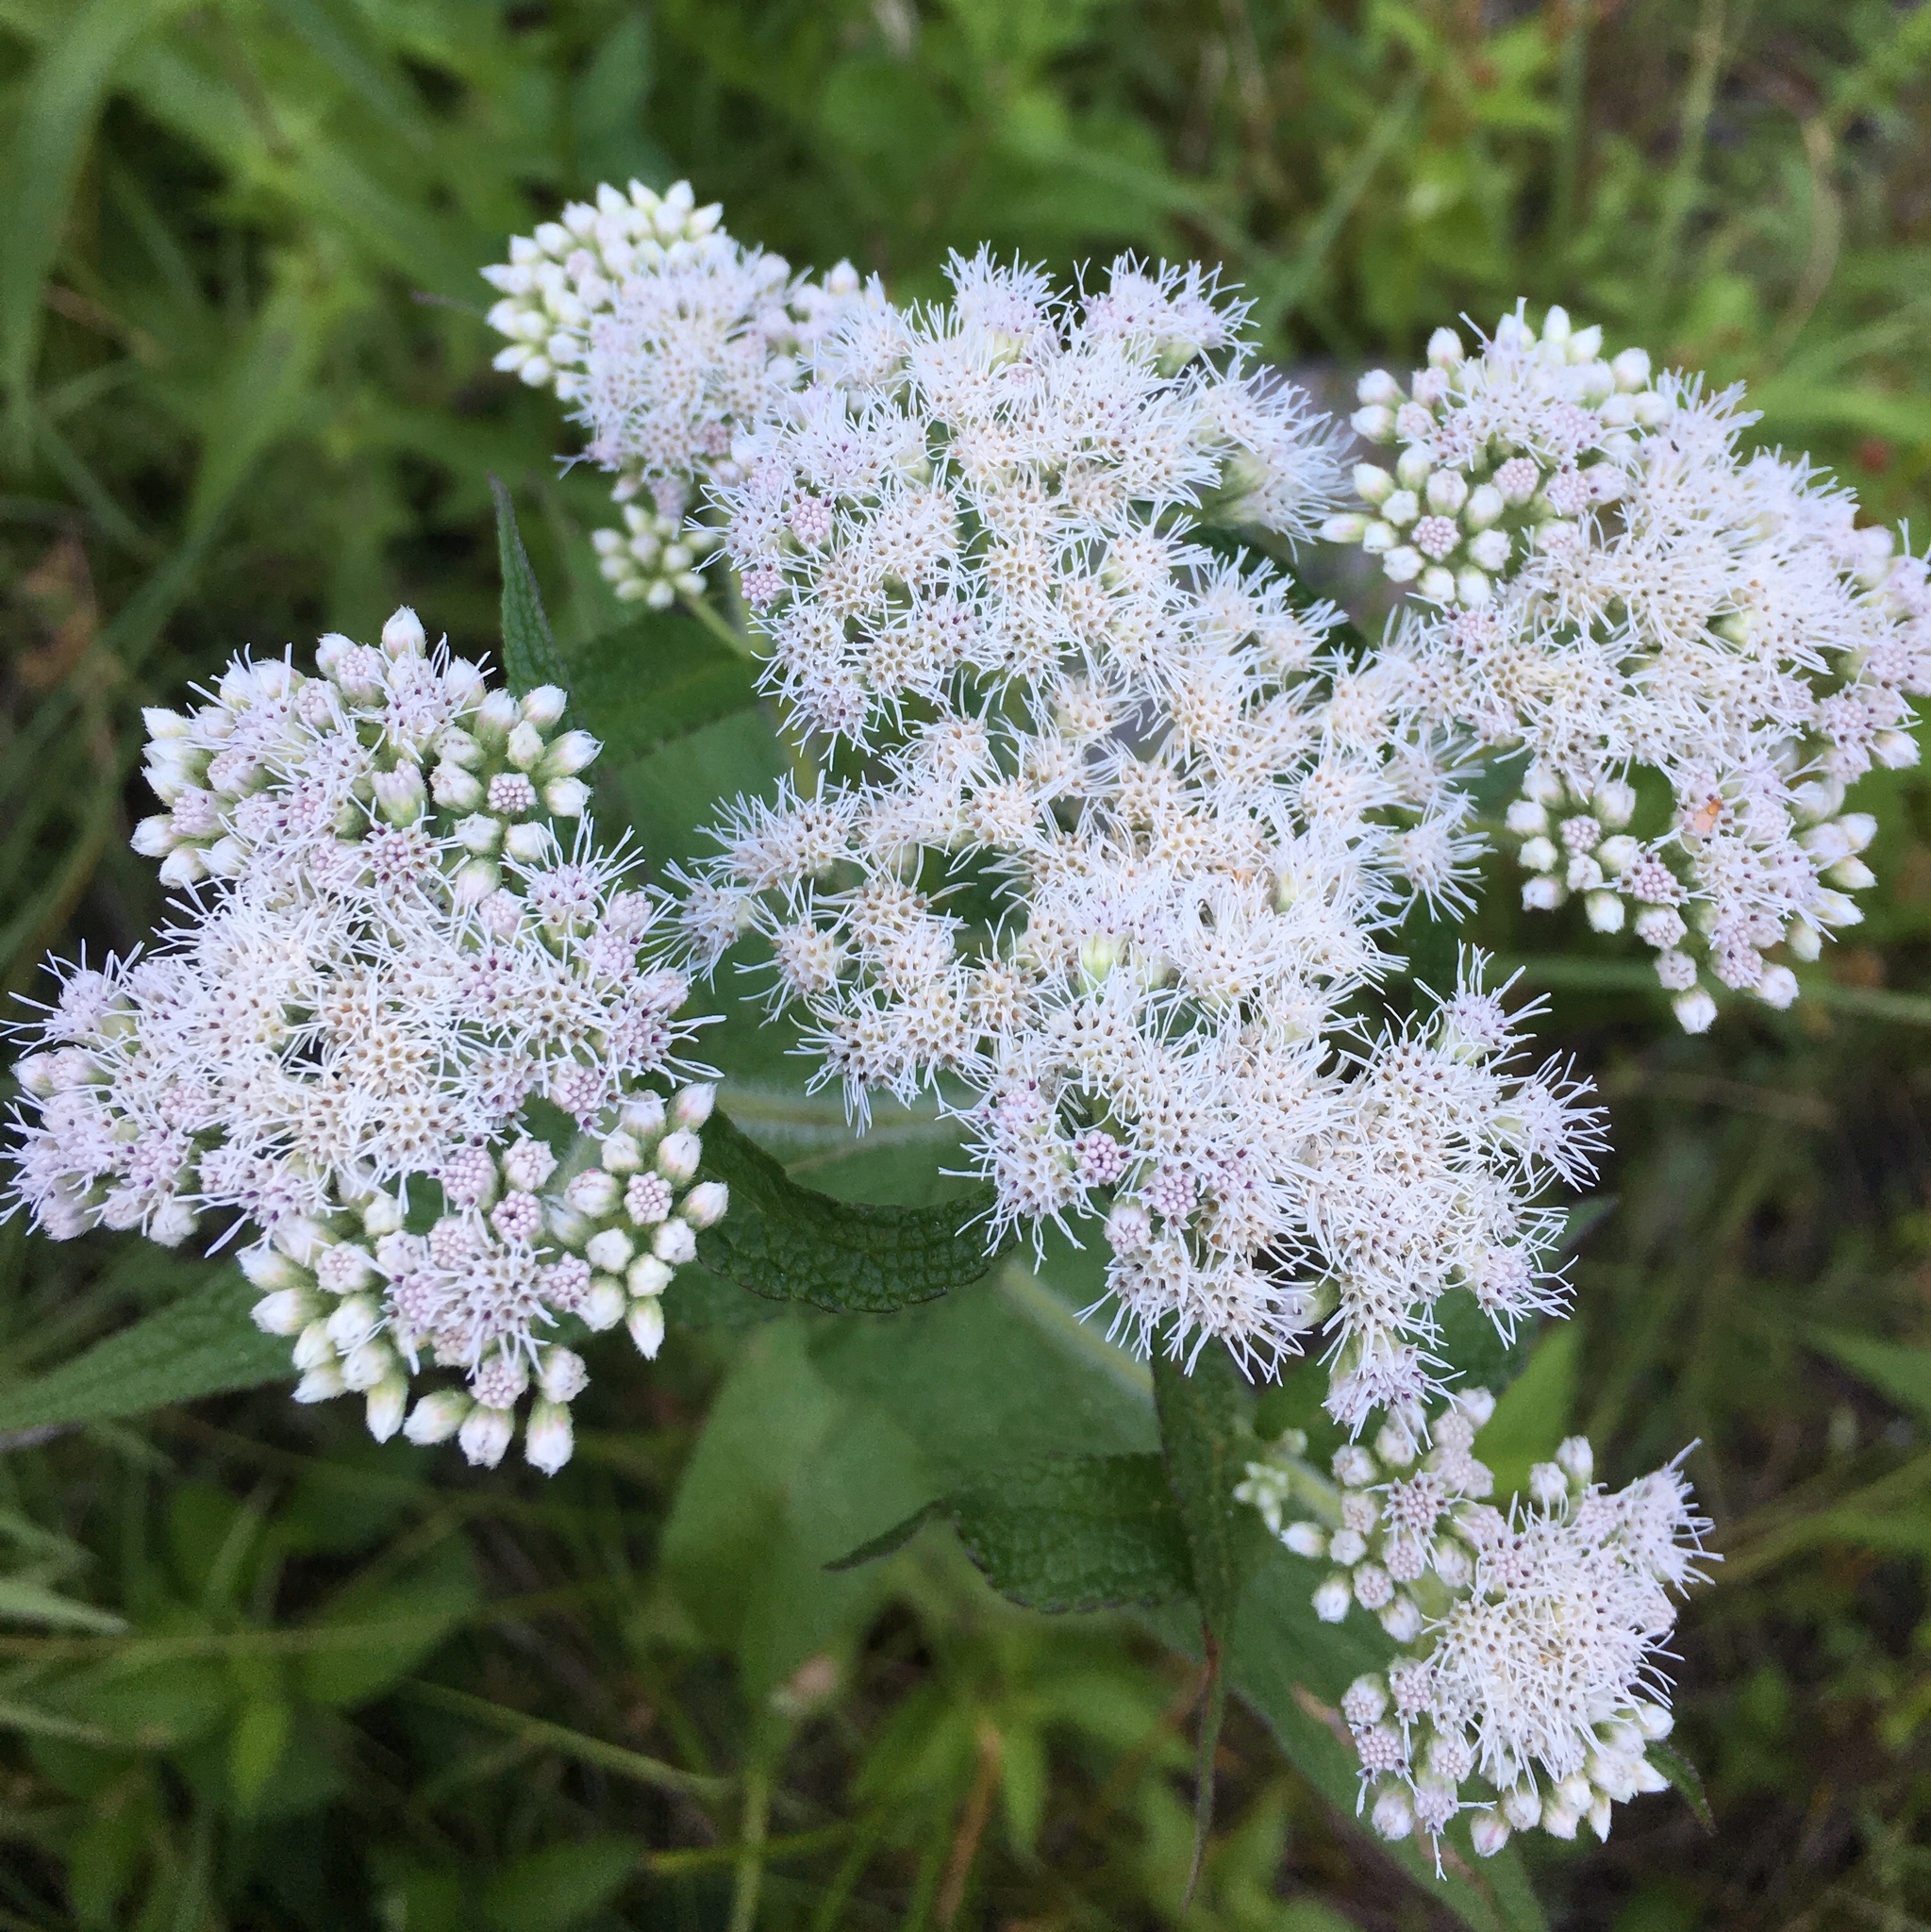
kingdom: Plantae
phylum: Tracheophyta
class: Magnoliopsida
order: Asterales
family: Asteraceae
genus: Eupatorium
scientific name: Eupatorium perfoliatum
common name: Boneset
